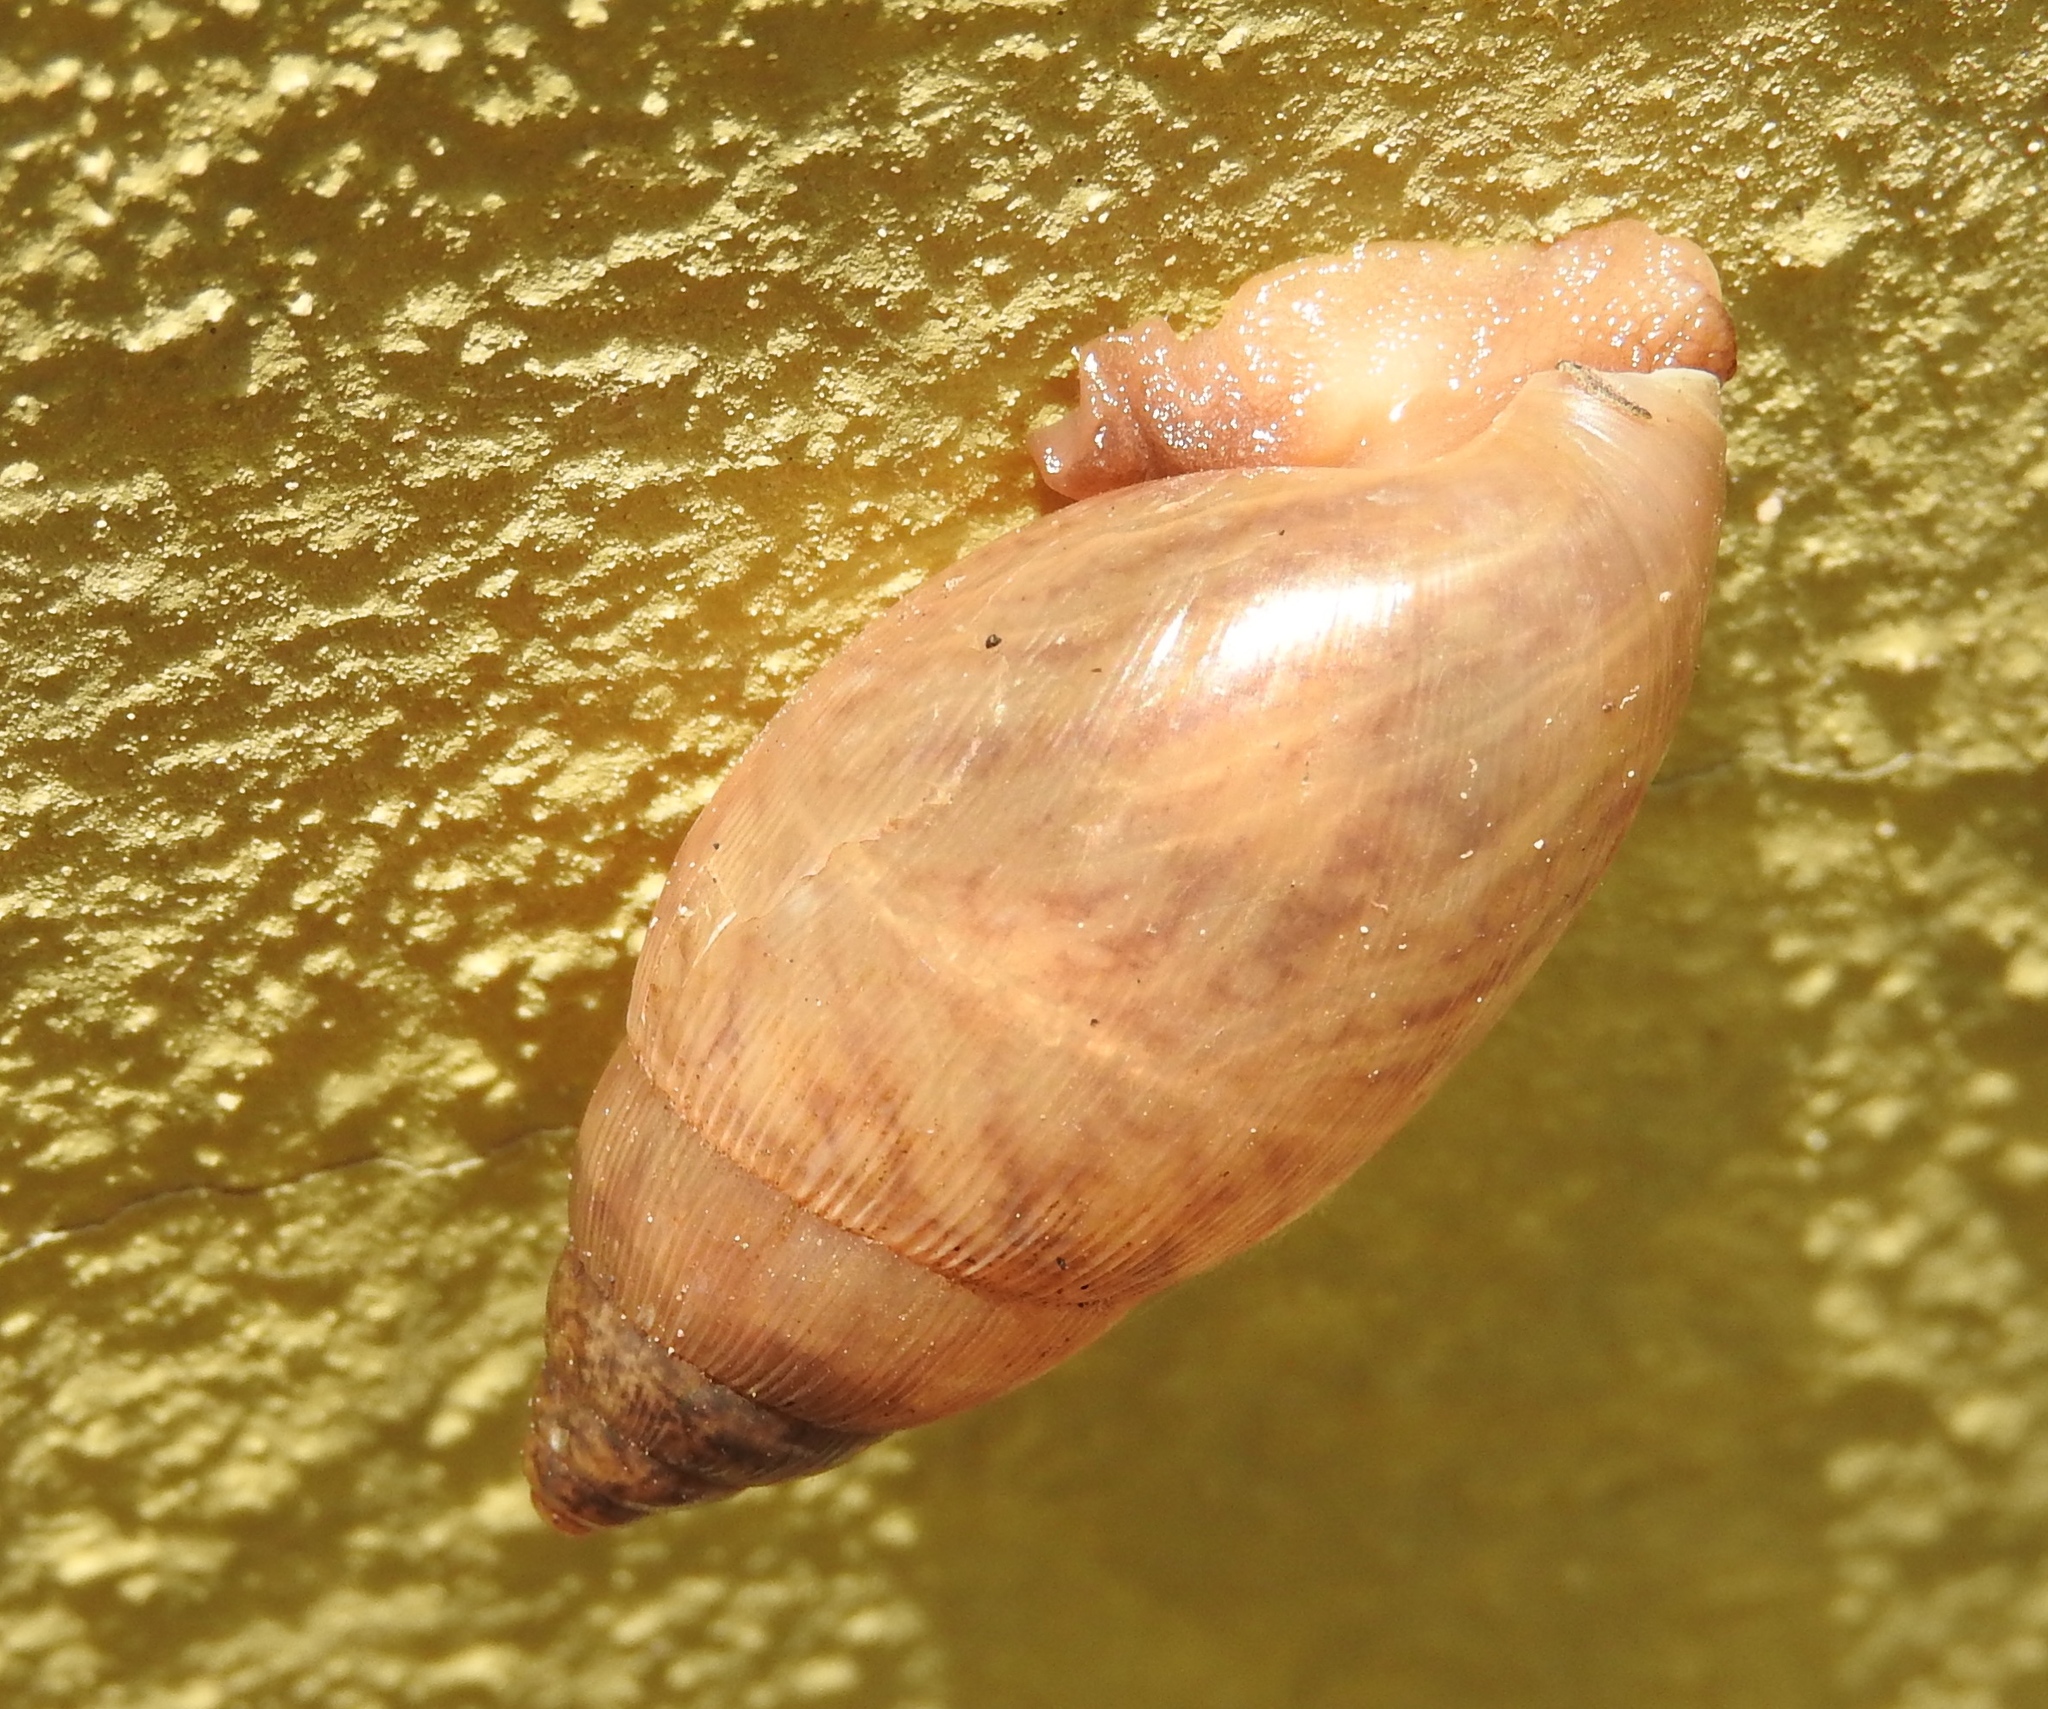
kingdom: Animalia
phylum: Mollusca
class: Gastropoda
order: Stylommatophora
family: Spiraxidae
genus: Euglandina
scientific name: Euglandina
